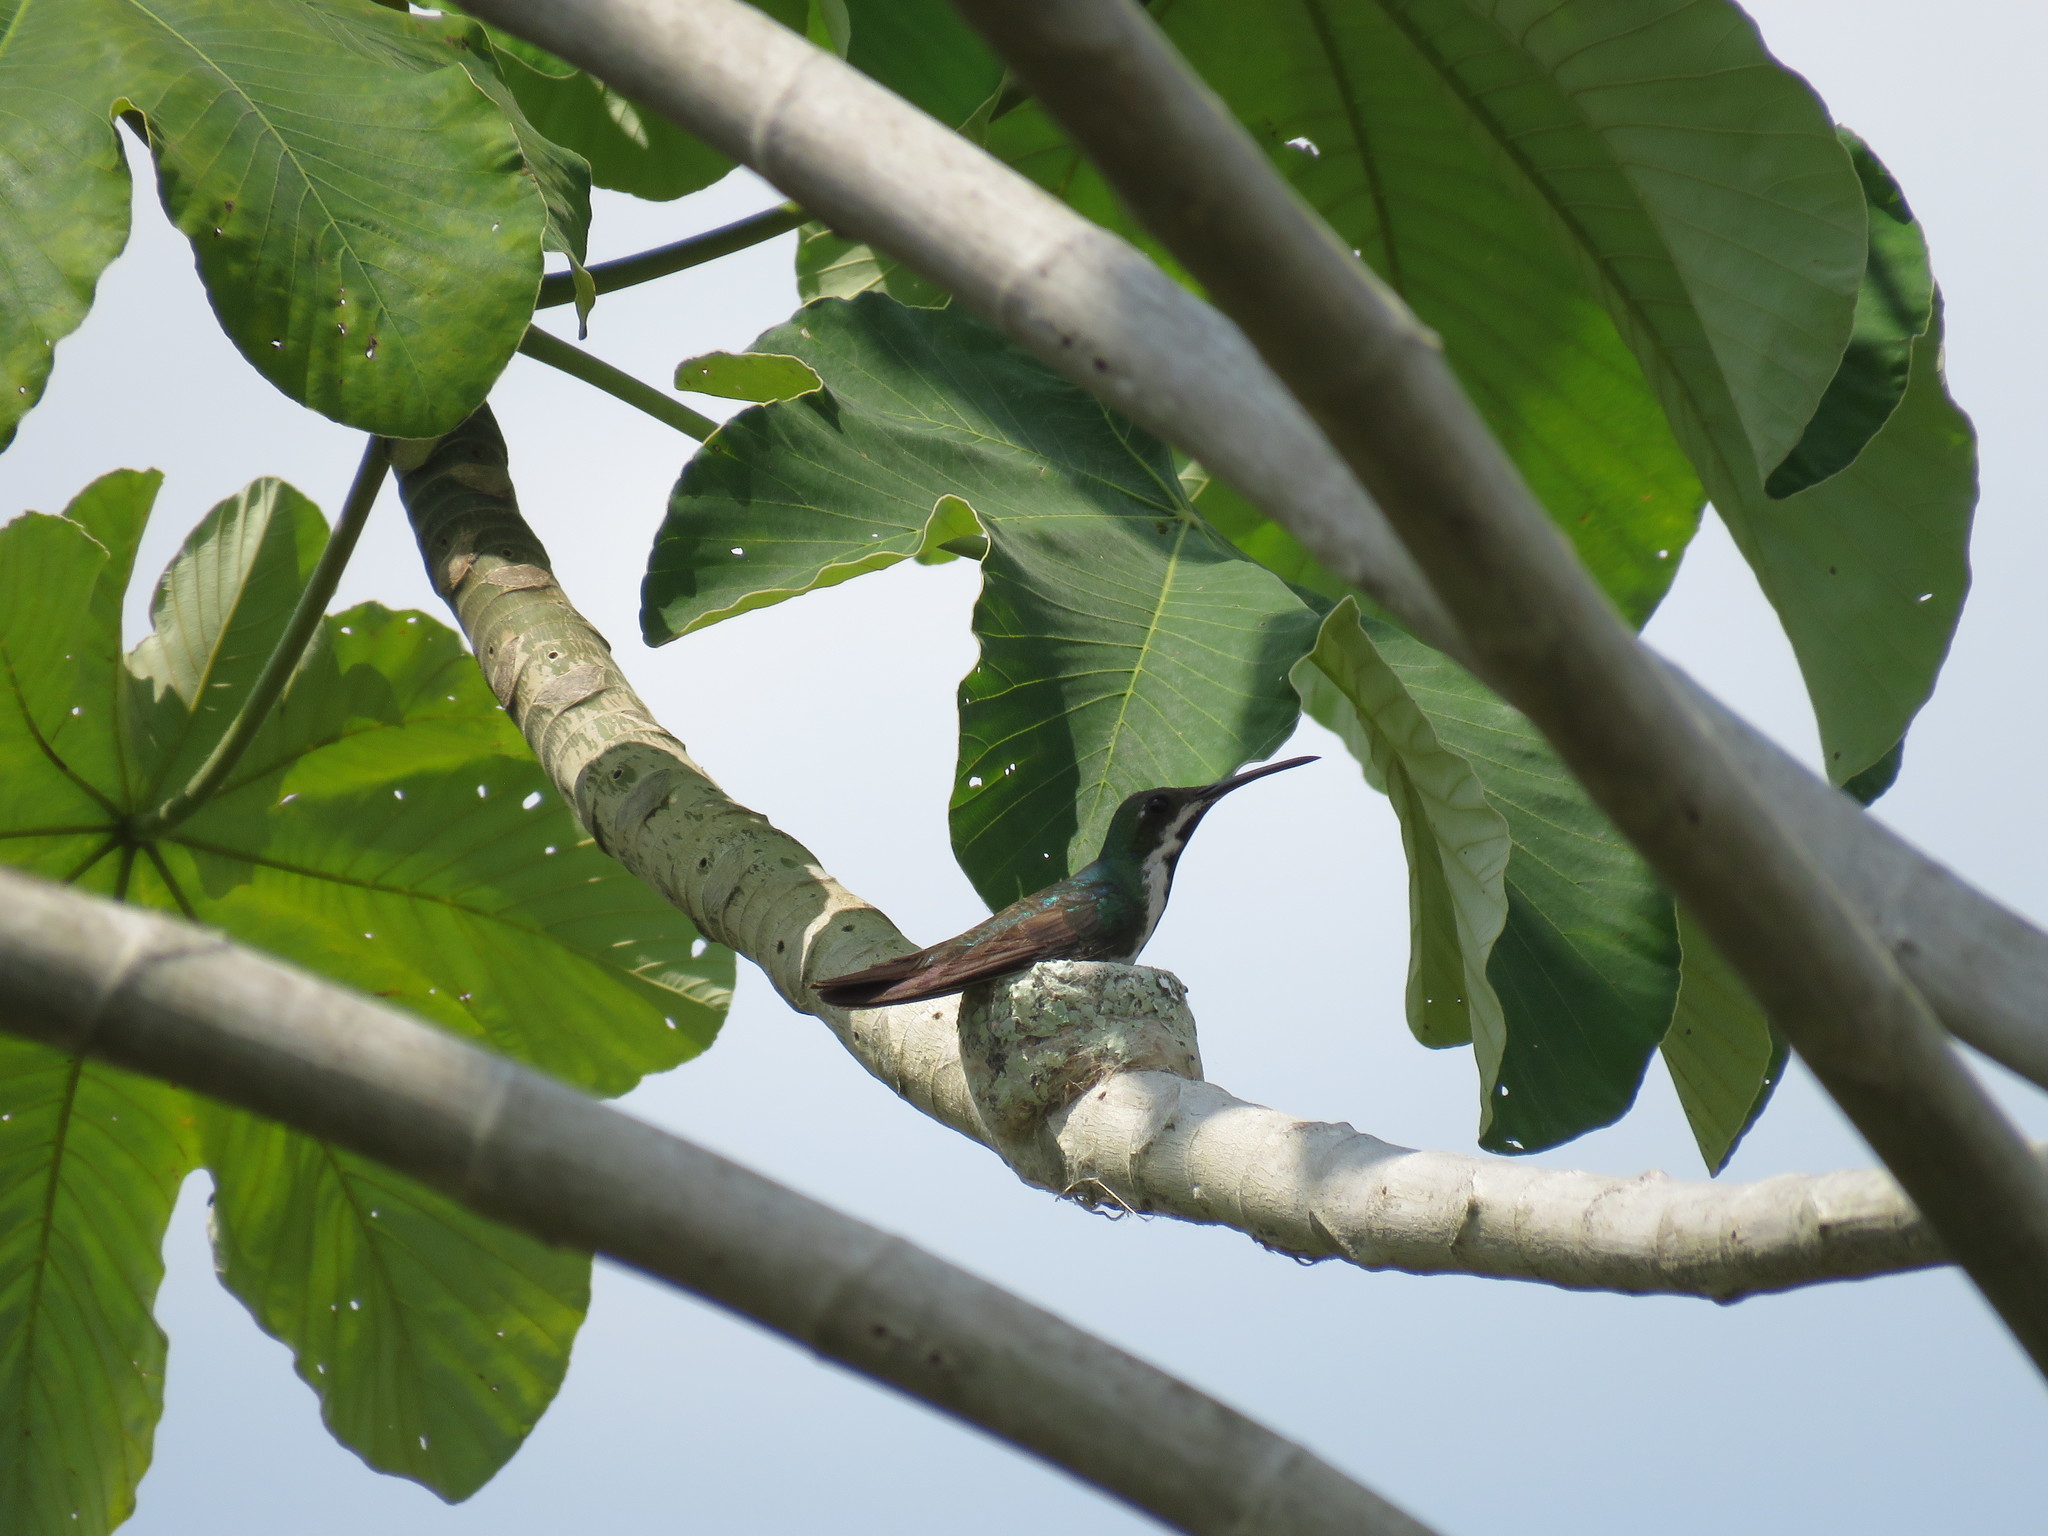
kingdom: Animalia
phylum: Chordata
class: Aves
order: Apodiformes
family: Trochilidae
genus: Anthracothorax
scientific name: Anthracothorax nigricollis
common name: Black-throated mango
